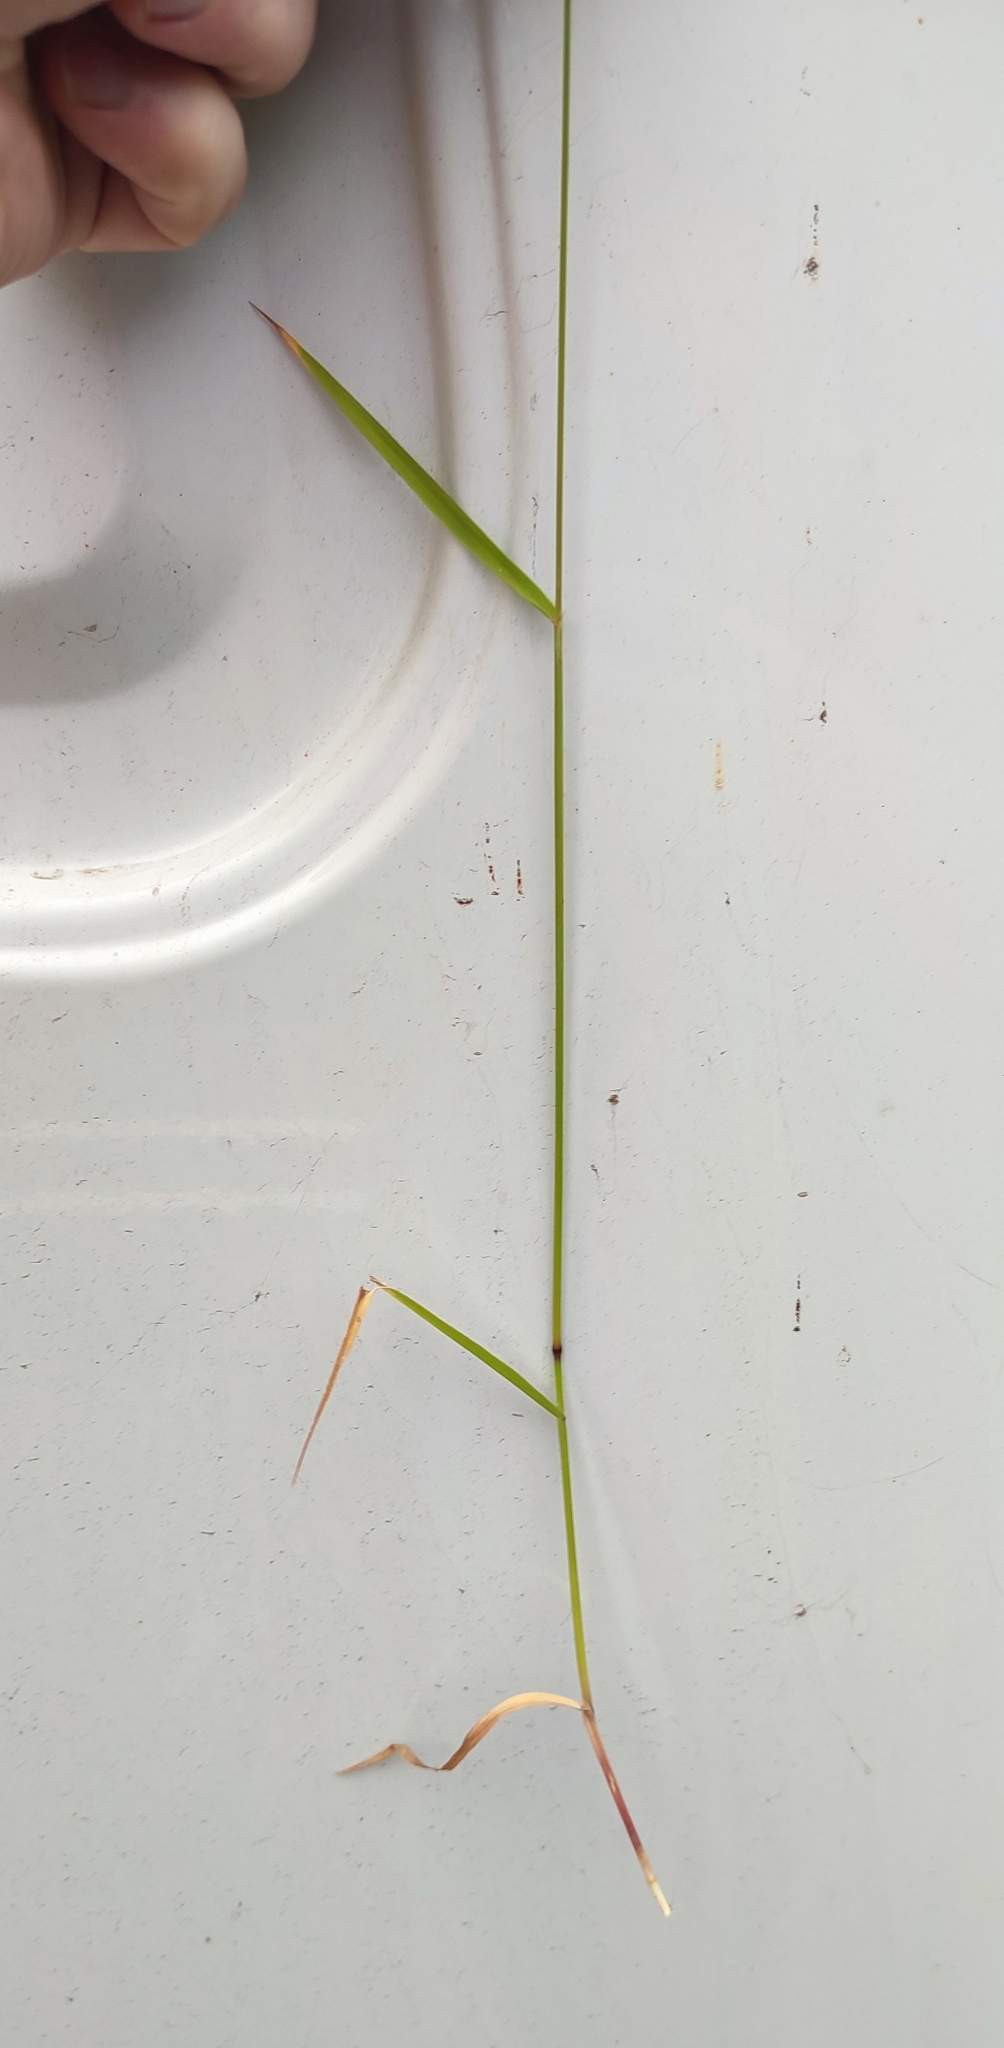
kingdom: Plantae
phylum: Tracheophyta
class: Liliopsida
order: Poales
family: Poaceae
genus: Agrostis
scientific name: Agrostis gigantea
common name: Black bent
